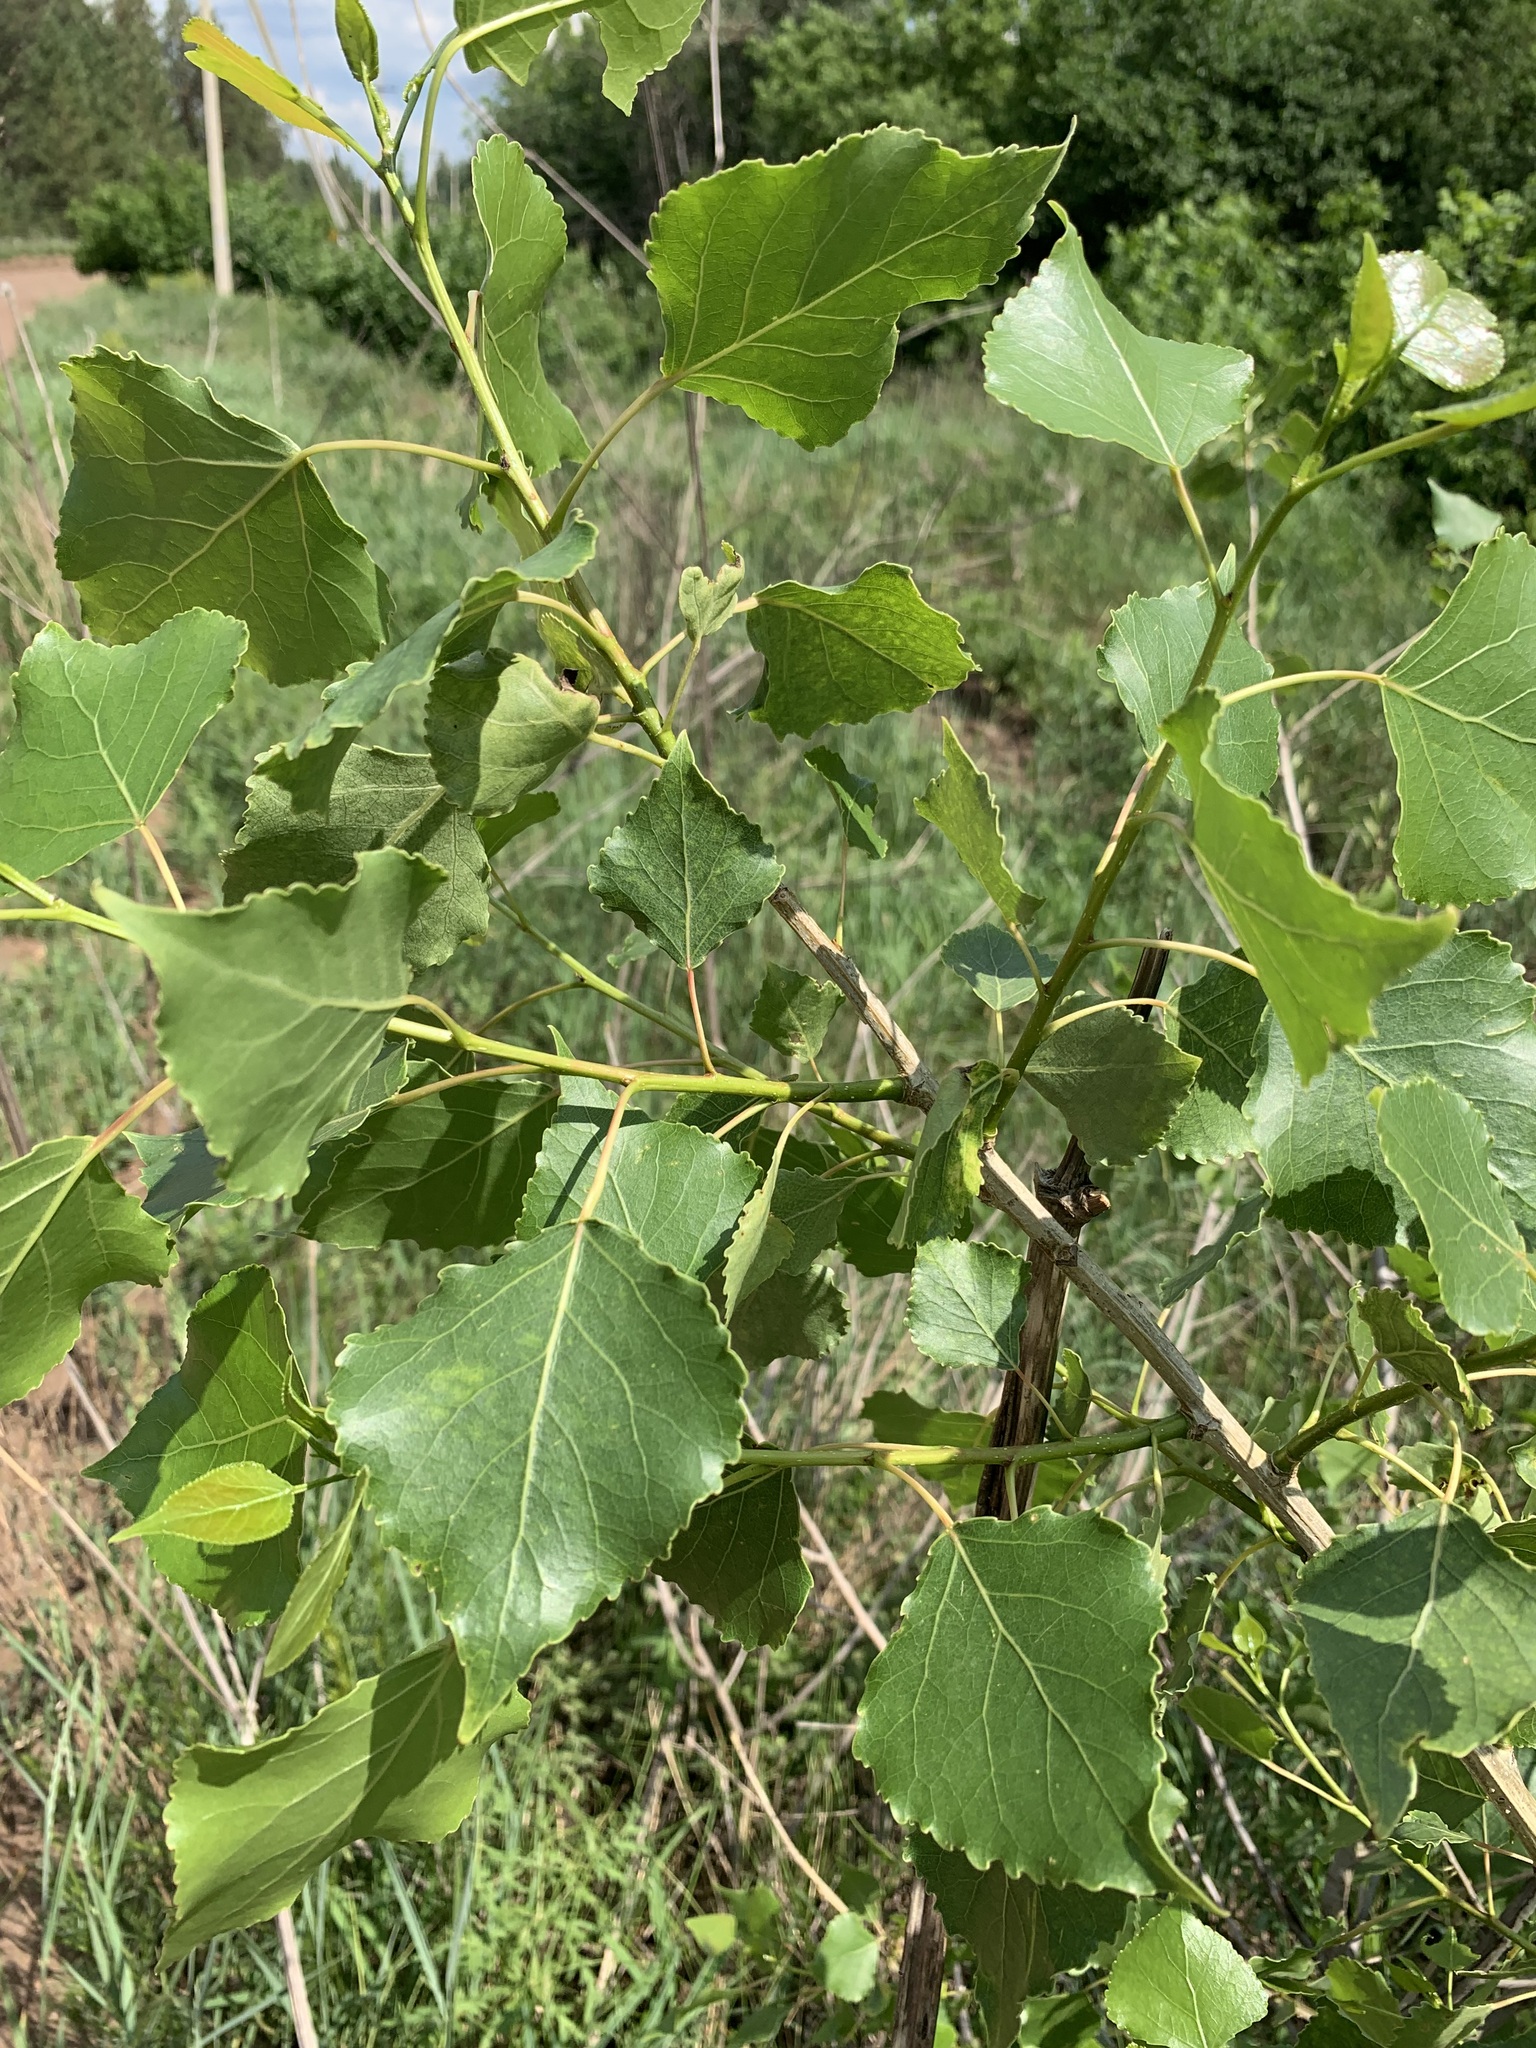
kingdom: Plantae
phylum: Tracheophyta
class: Magnoliopsida
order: Malpighiales
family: Salicaceae
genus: Populus
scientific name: Populus nigra
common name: Black poplar
